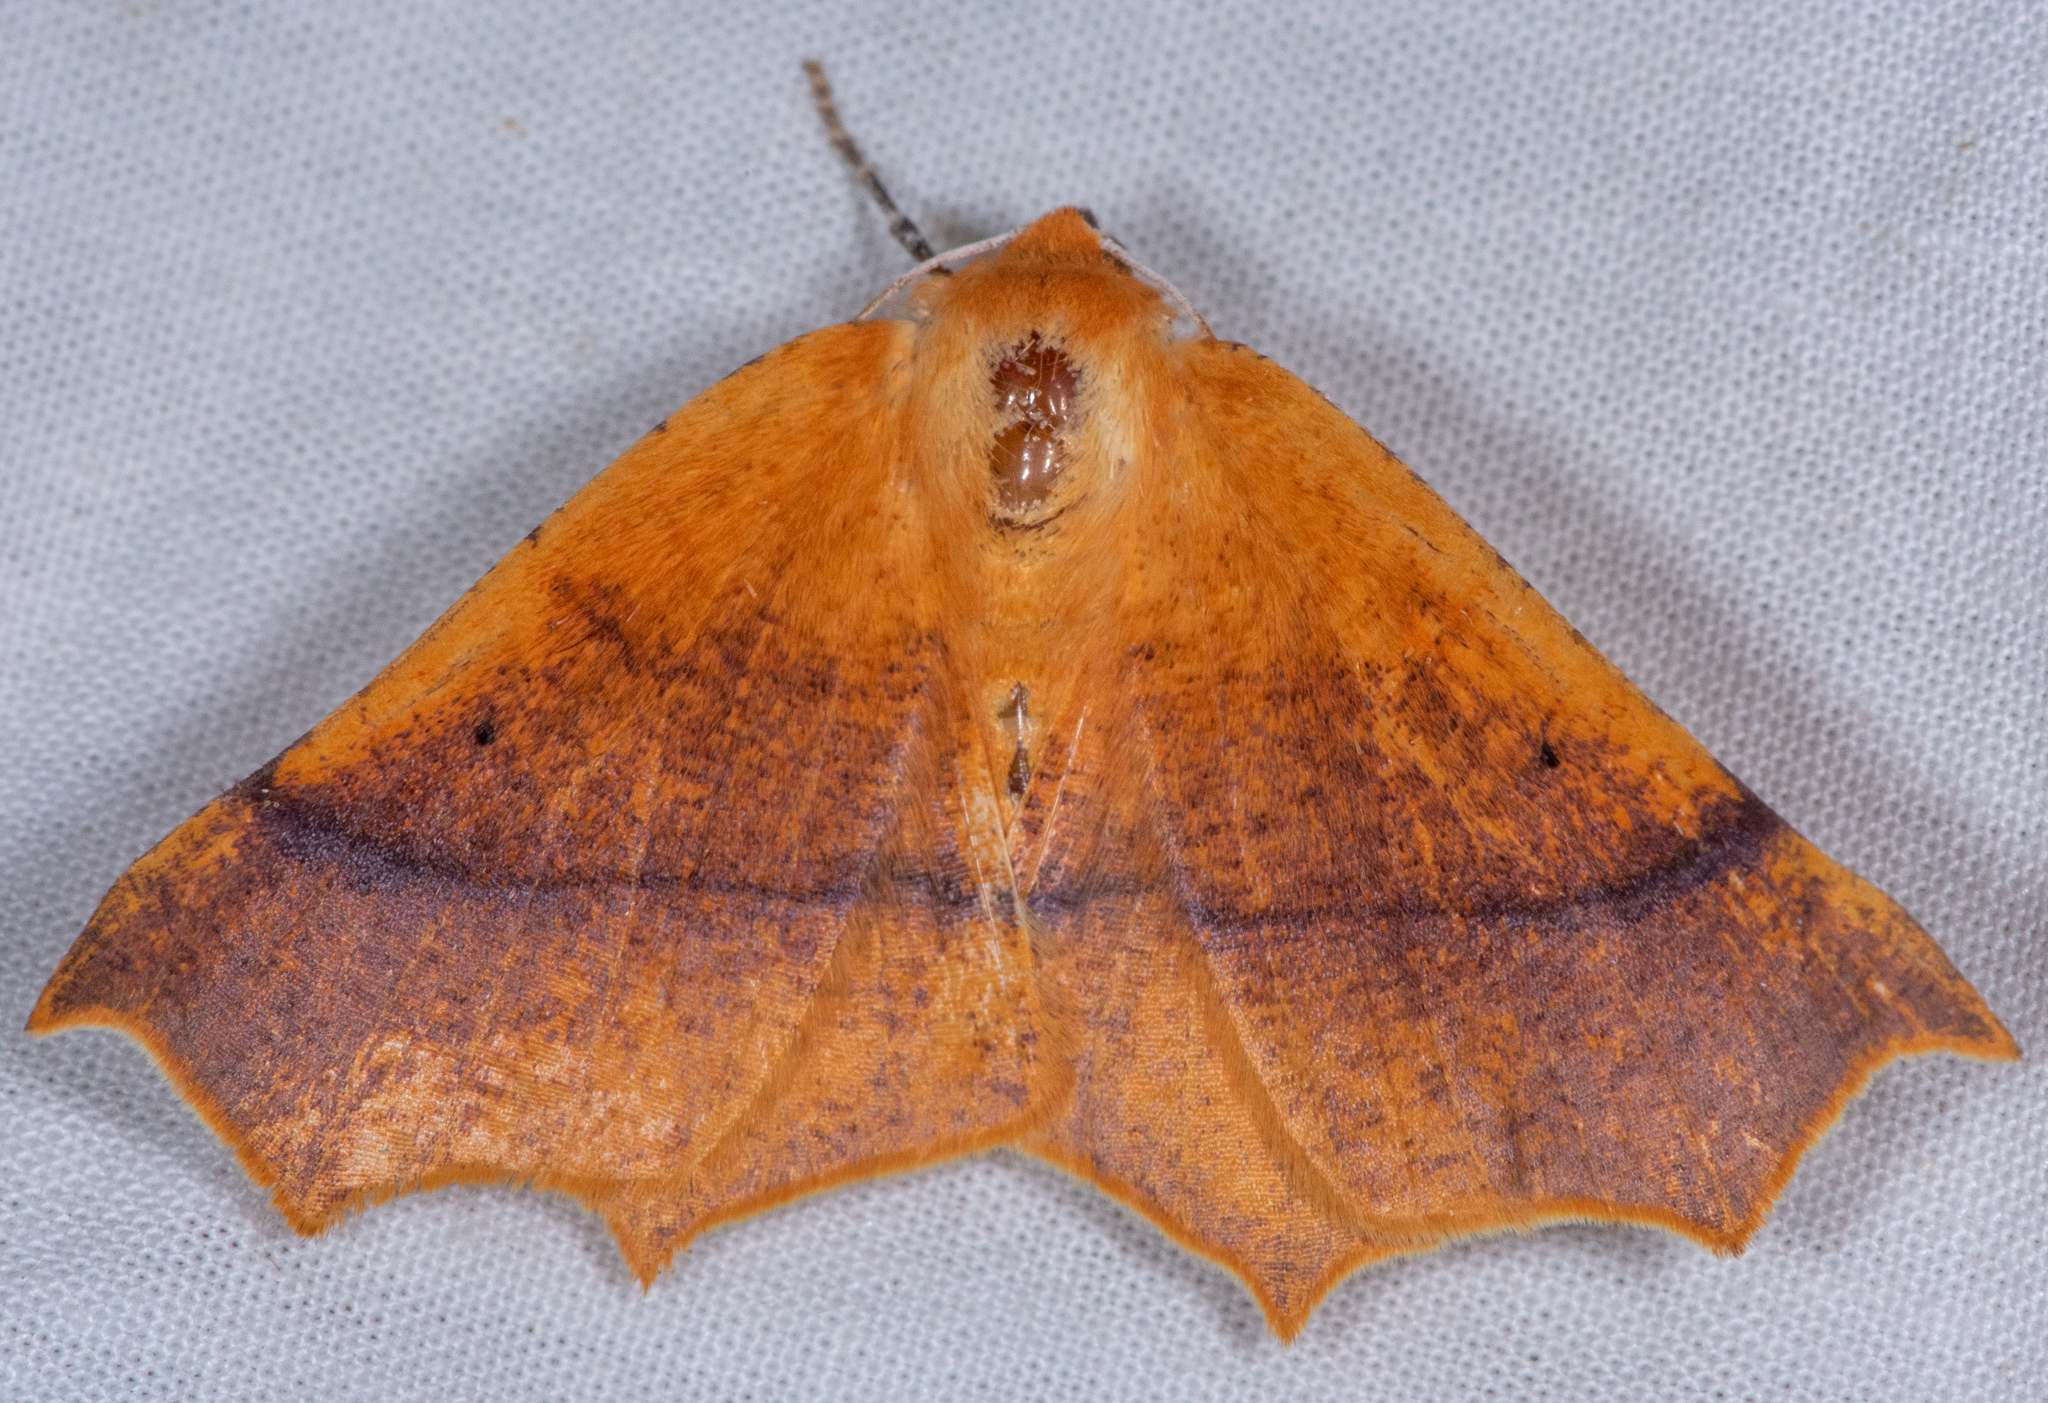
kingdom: Animalia
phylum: Arthropoda
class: Insecta
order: Lepidoptera
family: Geometridae
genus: Tetracis
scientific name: Tetracis cervinaria
